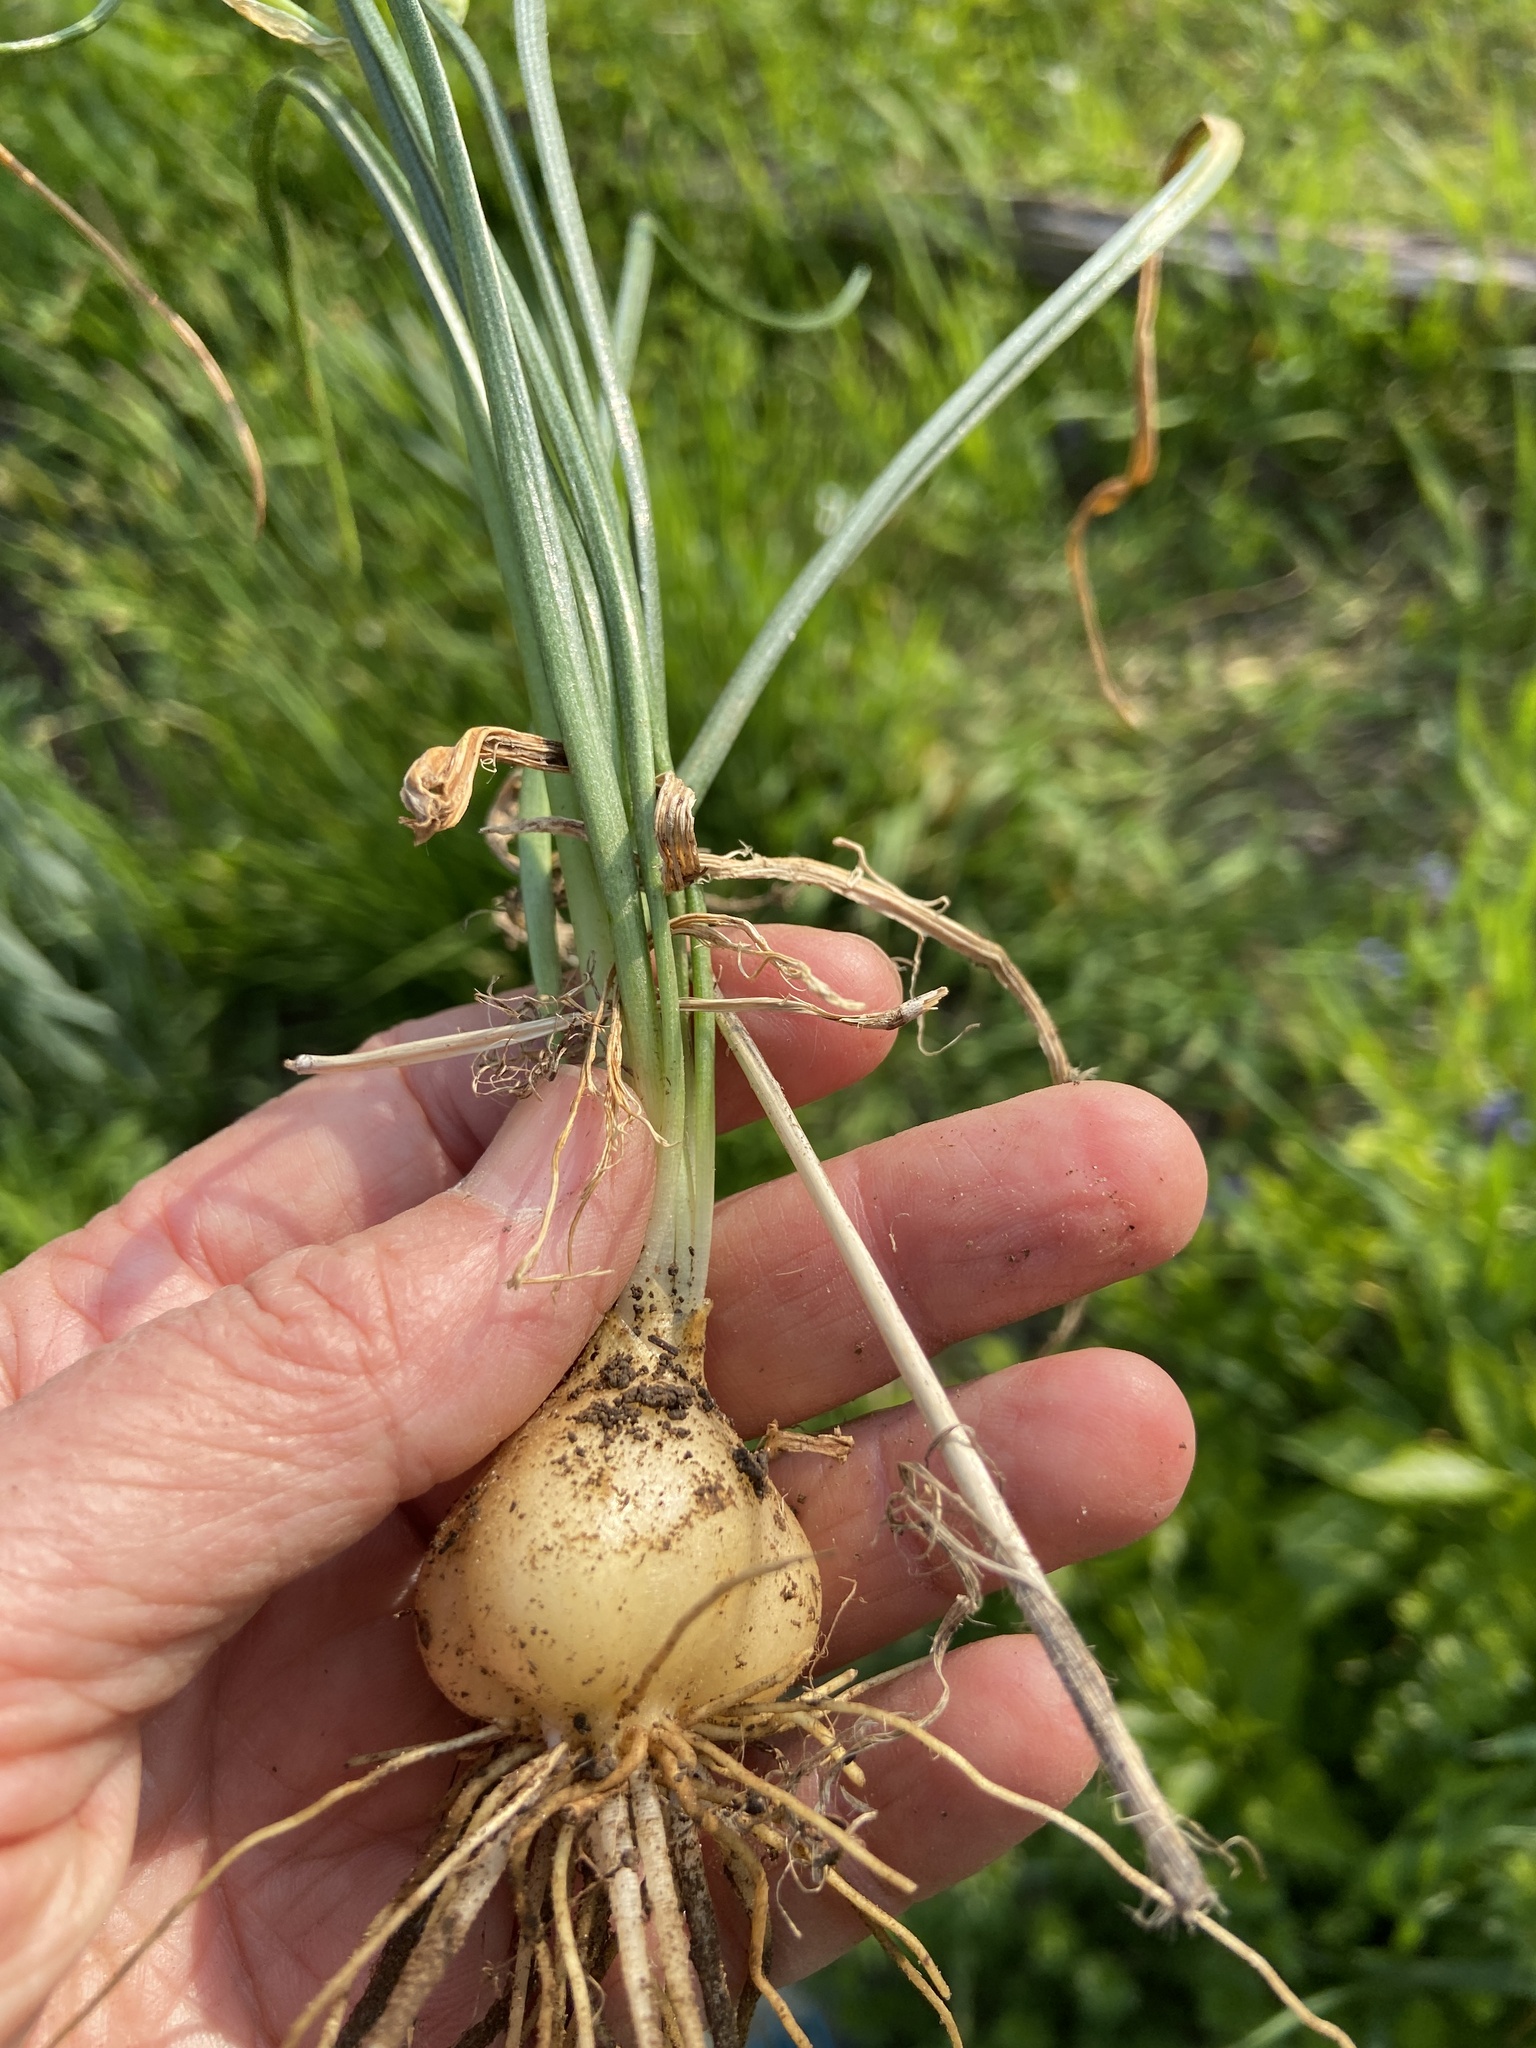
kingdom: Plantae
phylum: Tracheophyta
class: Liliopsida
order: Asparagales
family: Asparagaceae
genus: Ornithogalum
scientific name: Ornithogalum umbellatum
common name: Garden star-of-bethlehem
